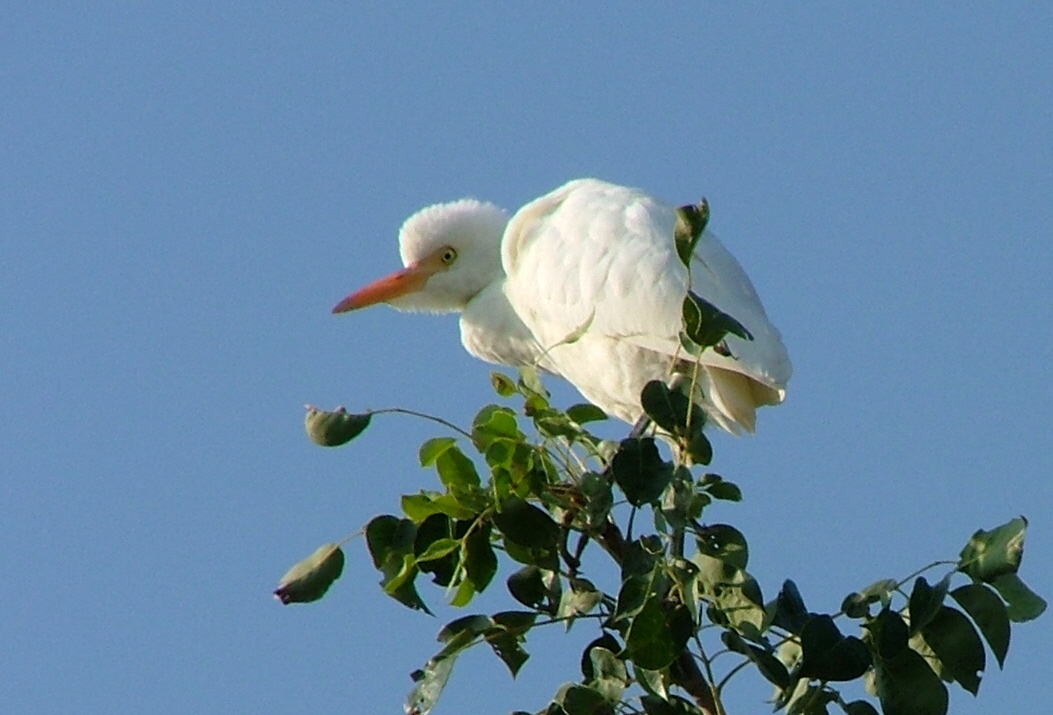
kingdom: Animalia
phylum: Chordata
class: Aves
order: Pelecaniformes
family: Ardeidae
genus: Bubulcus
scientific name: Bubulcus ibis
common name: Cattle egret
